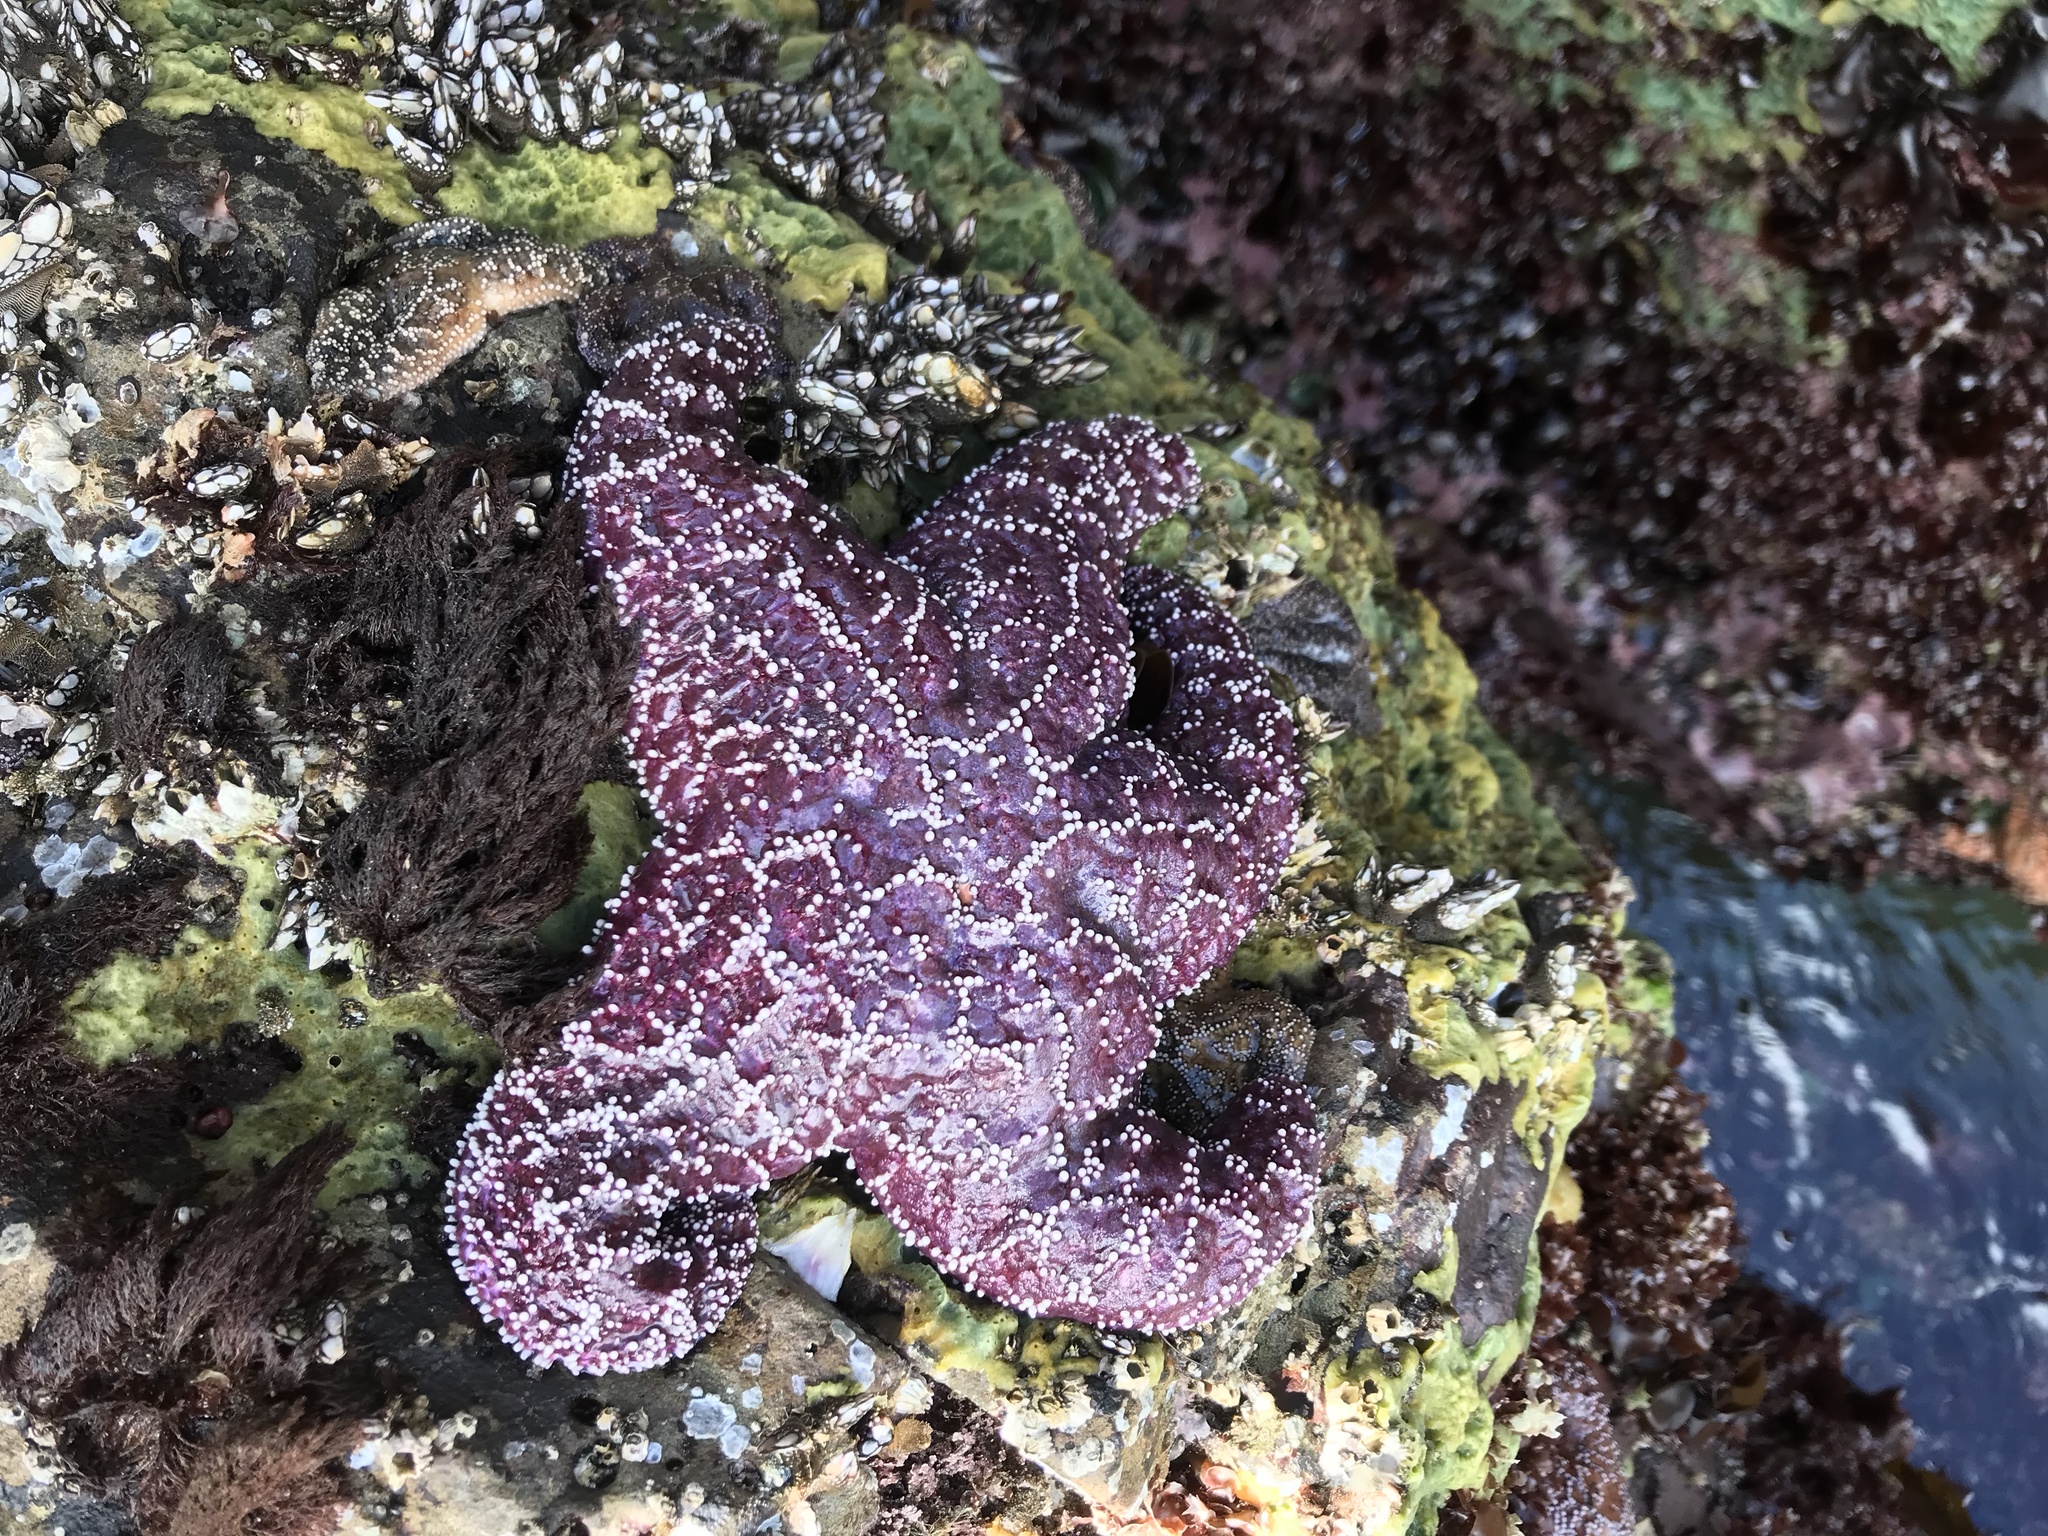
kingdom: Animalia
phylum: Echinodermata
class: Asteroidea
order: Forcipulatida
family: Asteriidae
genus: Pisaster
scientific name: Pisaster ochraceus
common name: Ochre stars
